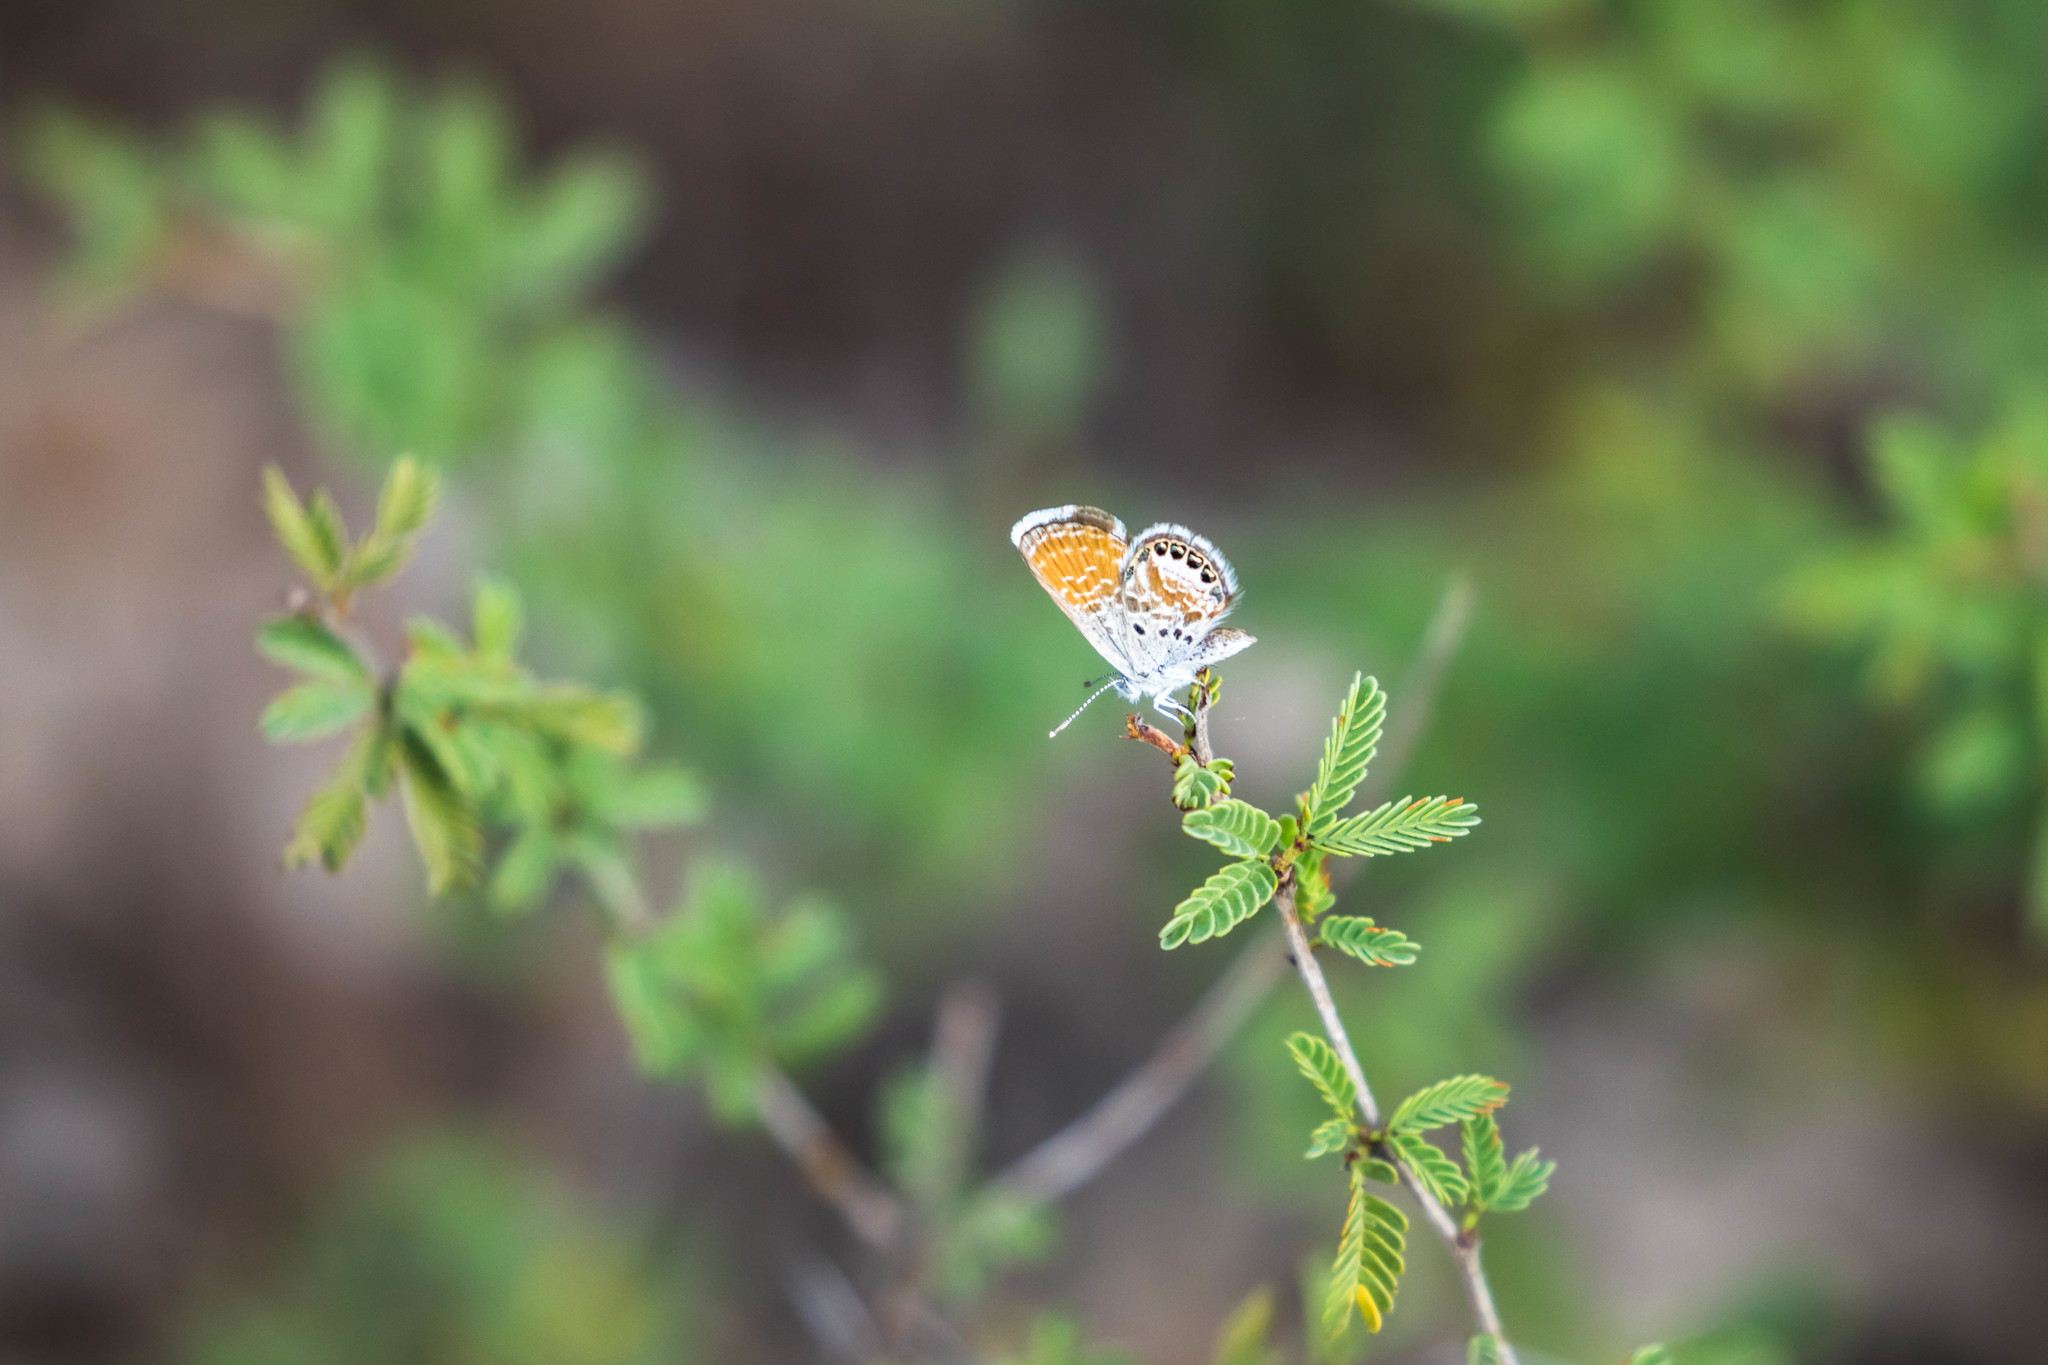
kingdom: Animalia
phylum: Arthropoda
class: Insecta
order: Lepidoptera
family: Lycaenidae
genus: Brephidium
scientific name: Brephidium exilis
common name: Pygmy blue
